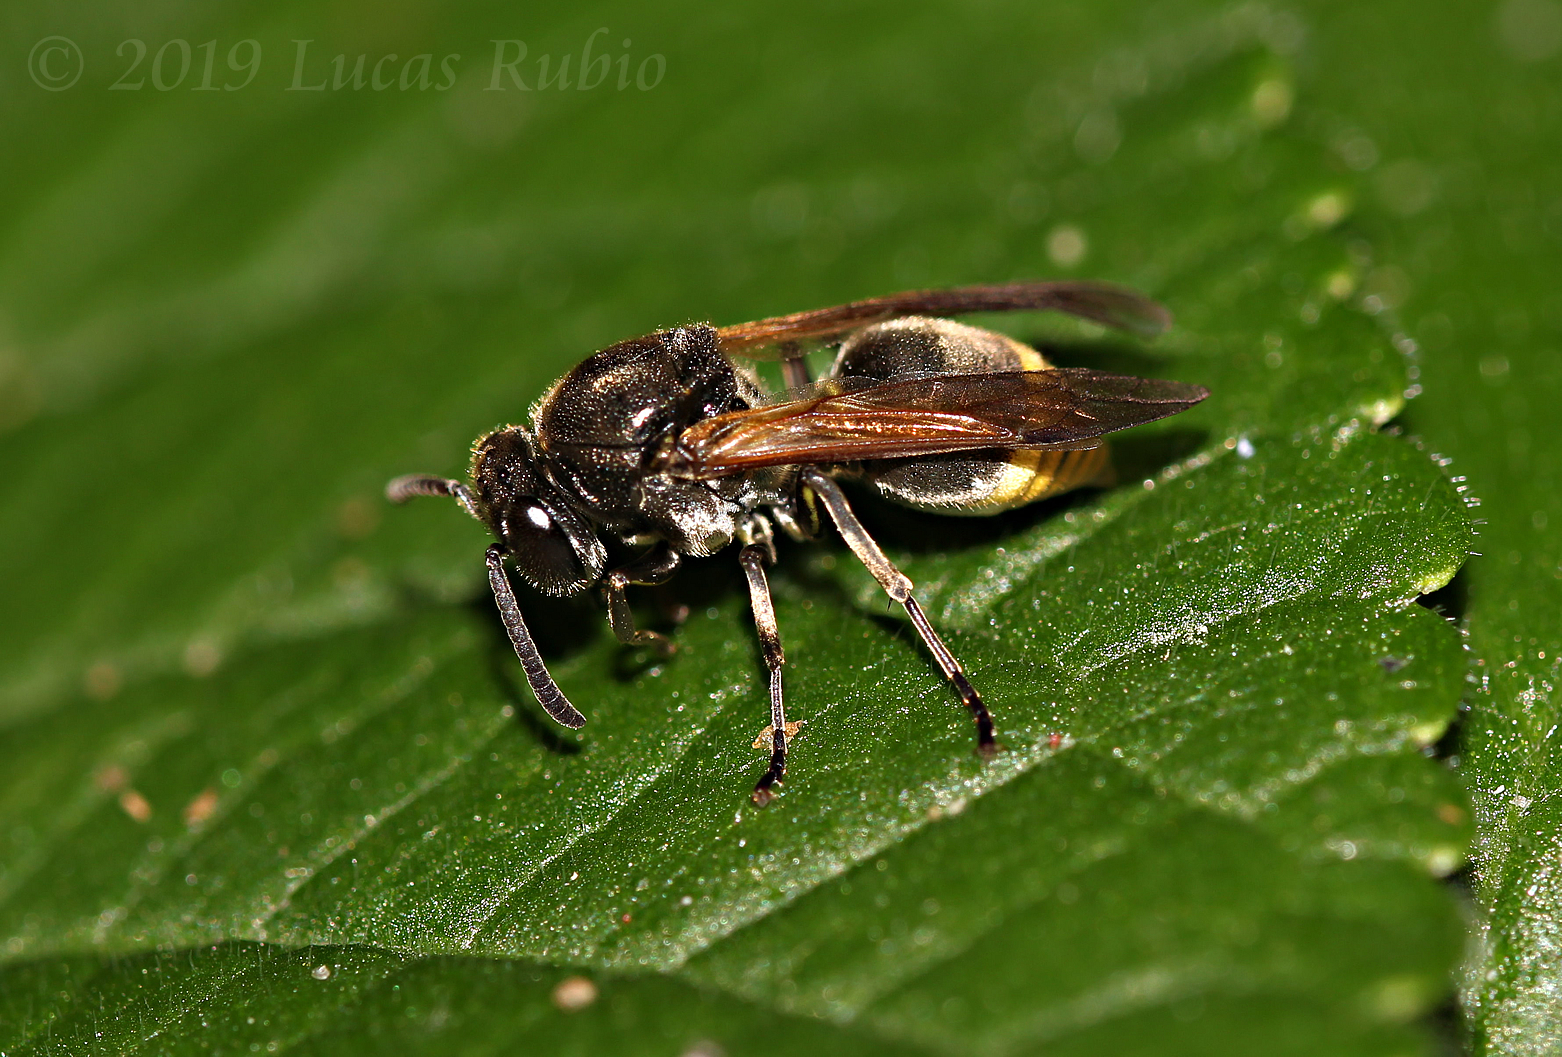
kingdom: Animalia
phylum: Arthropoda
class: Insecta
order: Hymenoptera
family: Vespidae
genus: Brachygastra
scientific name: Brachygastra lecheguana
